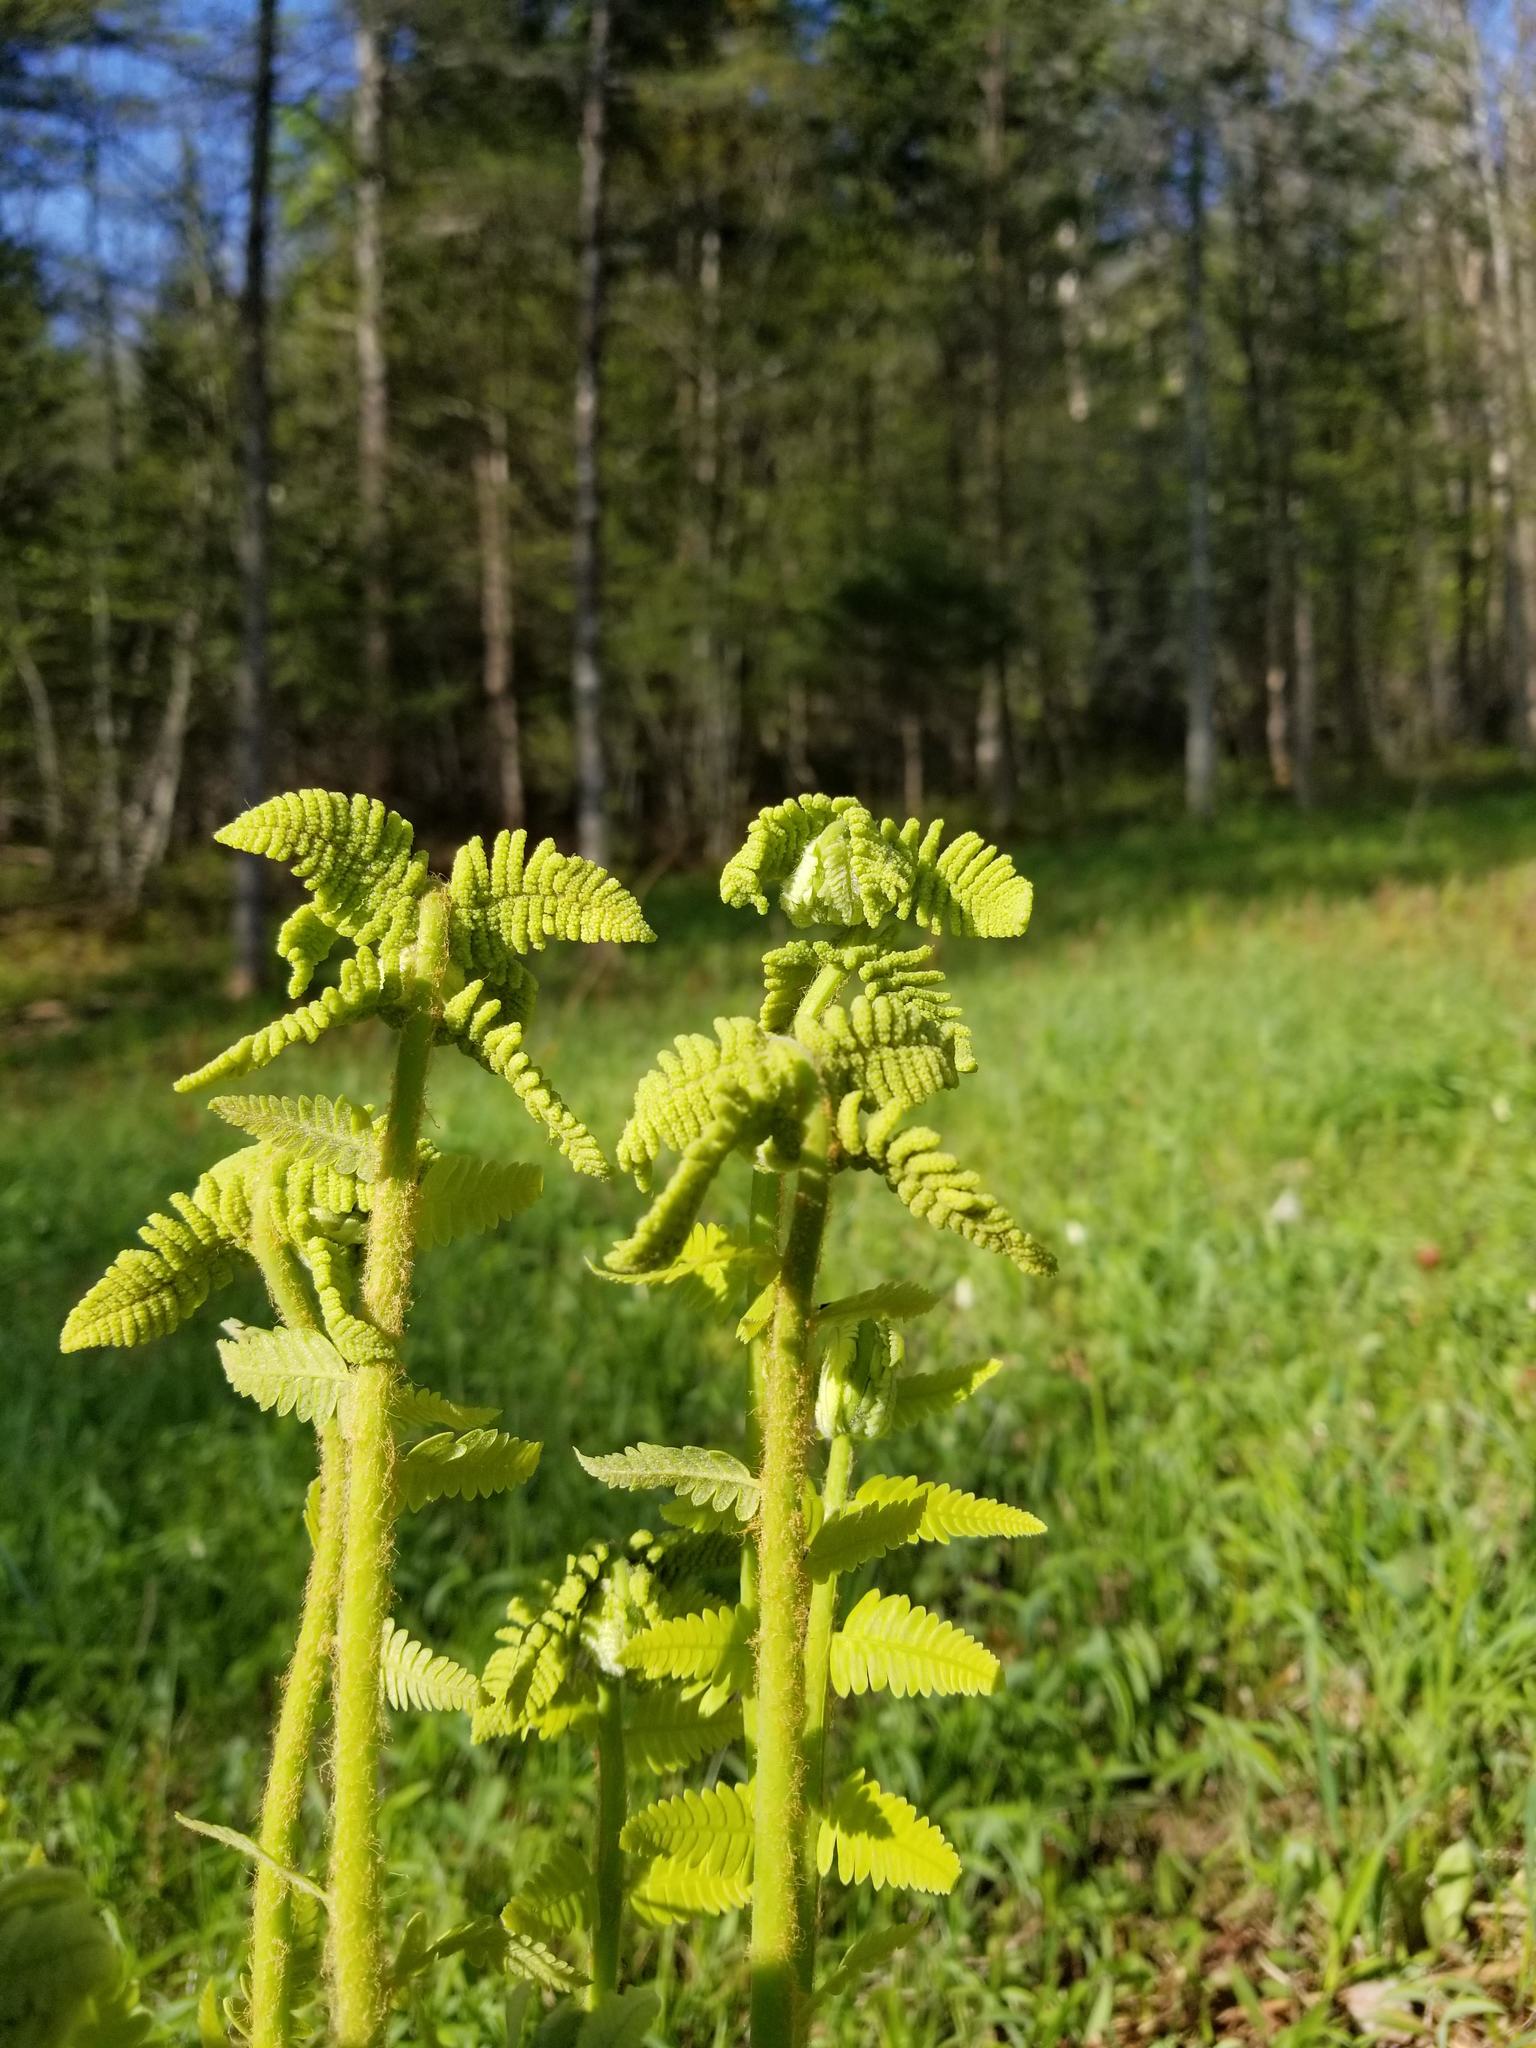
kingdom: Plantae
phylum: Tracheophyta
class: Polypodiopsida
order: Osmundales
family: Osmundaceae
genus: Claytosmunda
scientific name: Claytosmunda claytoniana
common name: Clayton's fern
